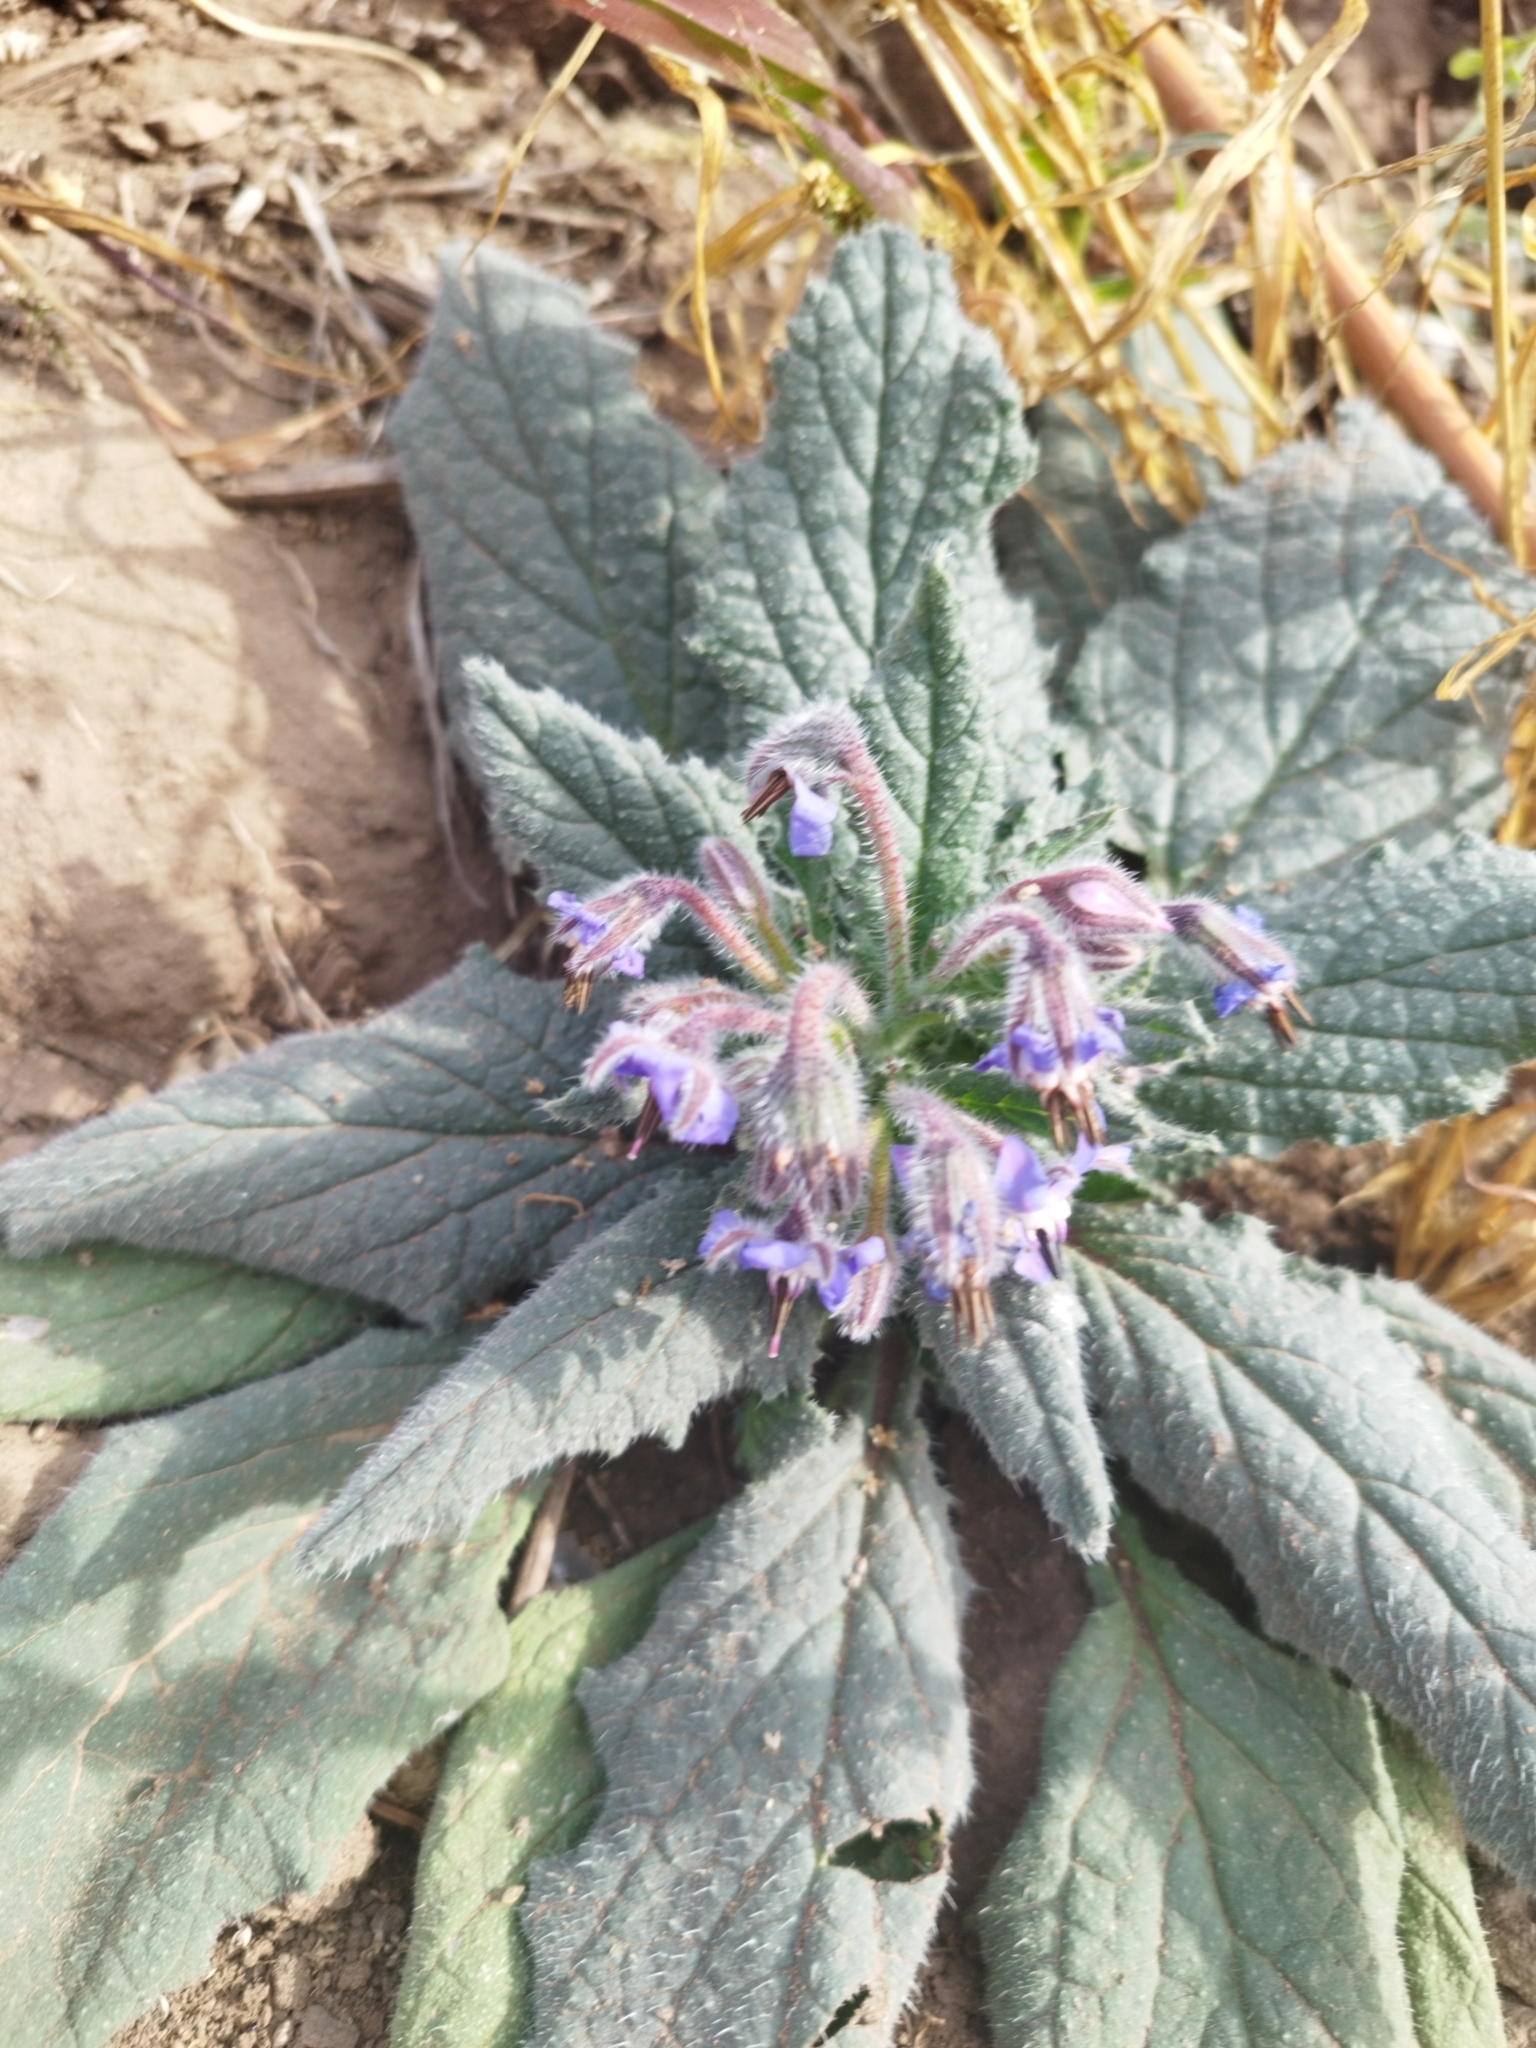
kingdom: Plantae
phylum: Tracheophyta
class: Magnoliopsida
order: Boraginales
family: Boraginaceae
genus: Borago
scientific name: Borago officinalis
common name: Borage
